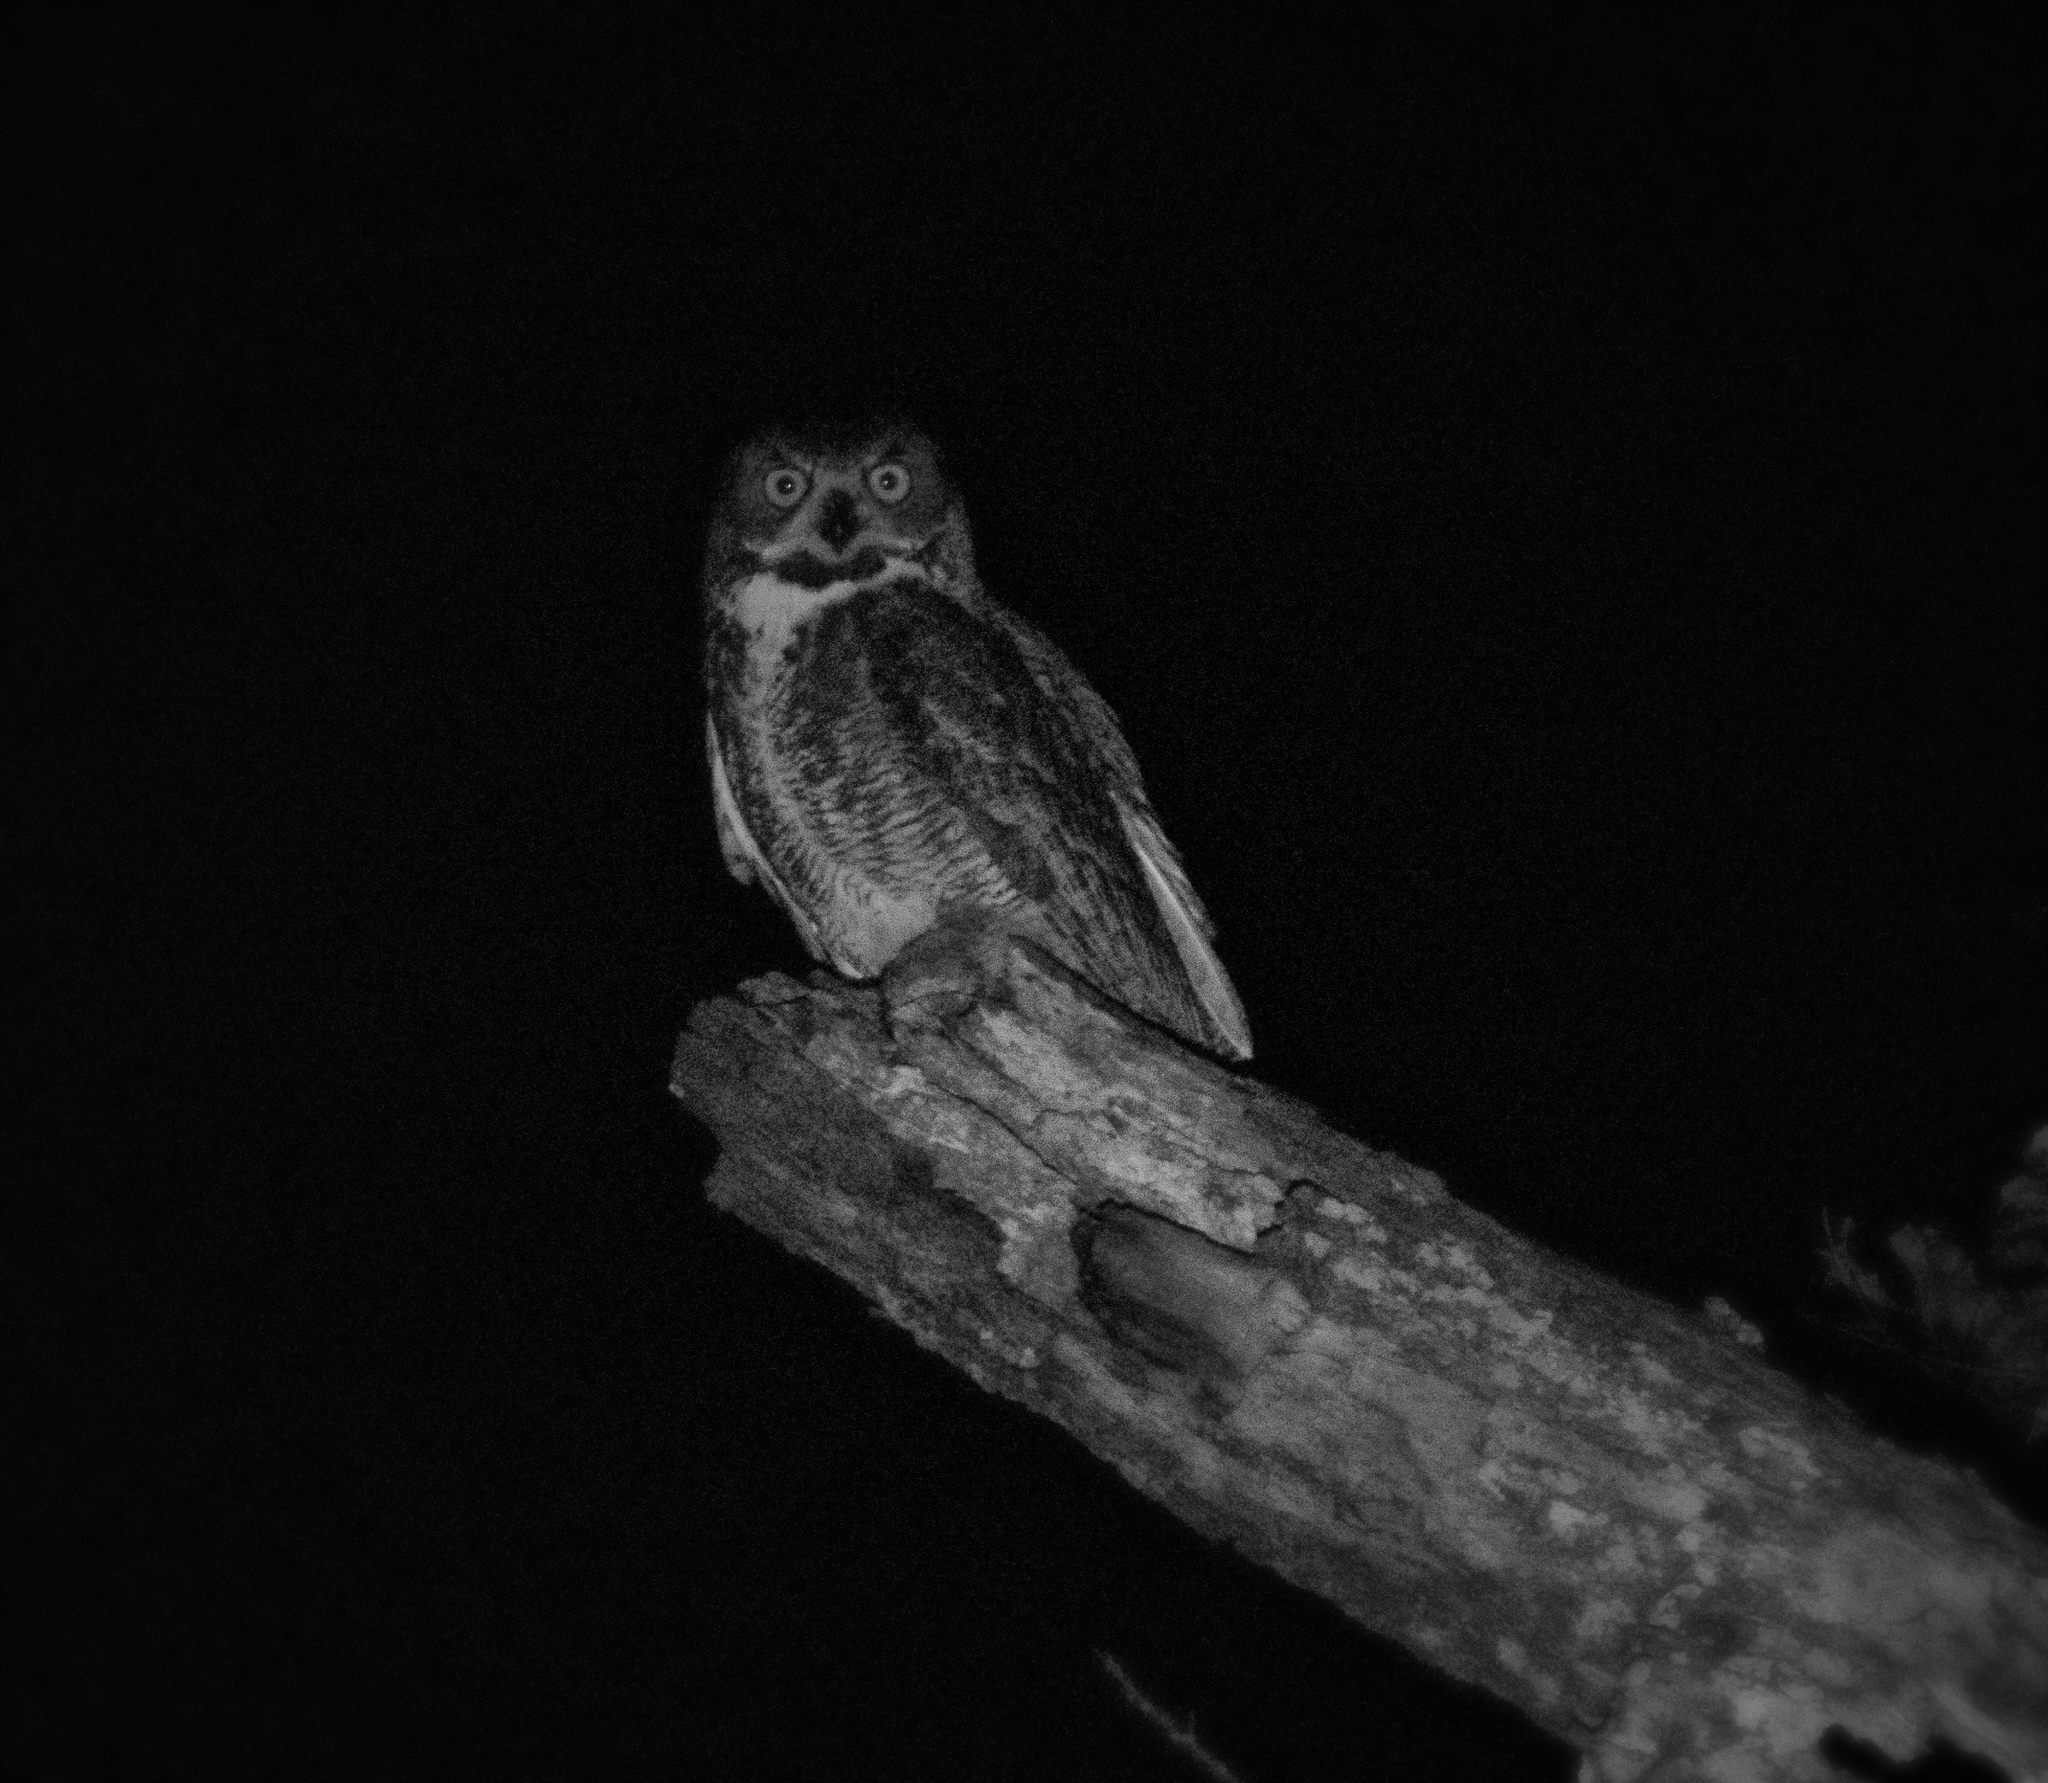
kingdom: Animalia
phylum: Chordata
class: Aves
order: Strigiformes
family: Strigidae
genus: Bubo
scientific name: Bubo virginianus
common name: Great horned owl
